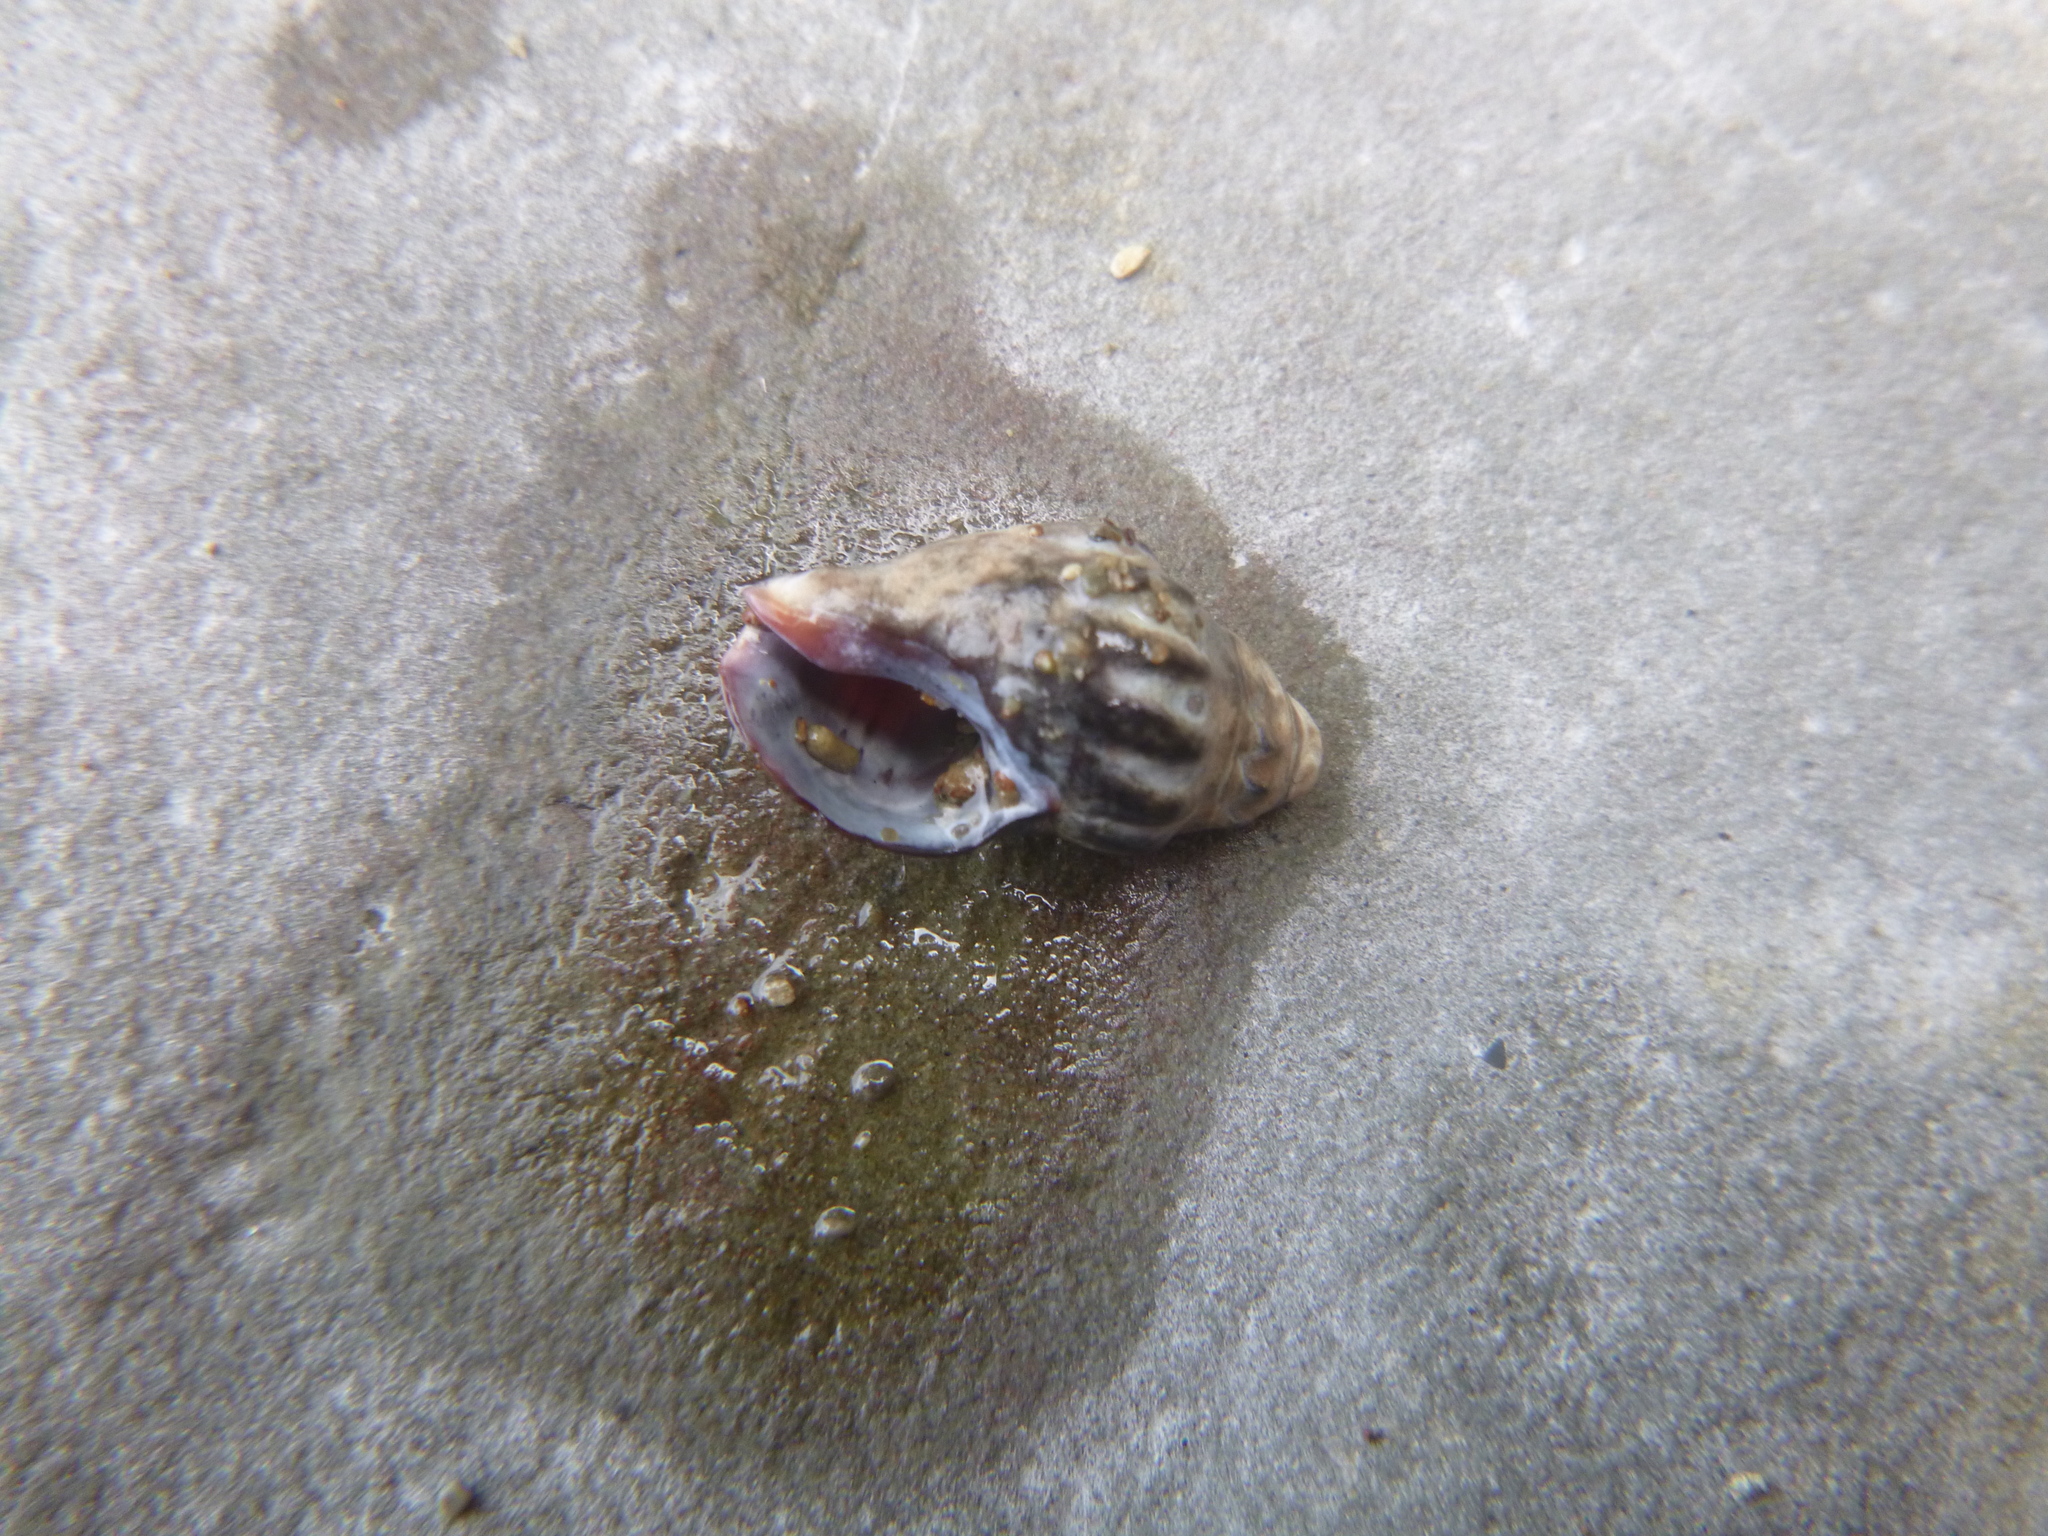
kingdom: Animalia
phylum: Mollusca
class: Gastropoda
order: Neogastropoda
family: Cominellidae
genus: Cominella
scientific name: Cominella glandiformis
